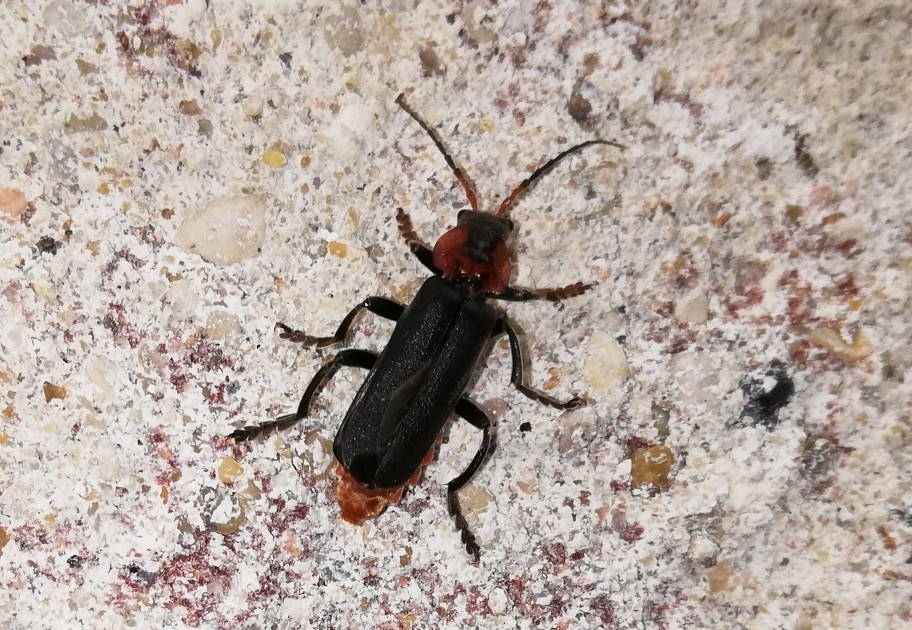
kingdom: Animalia
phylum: Arthropoda
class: Insecta
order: Coleoptera
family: Cantharidae
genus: Cantharis
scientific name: Cantharis fusca
